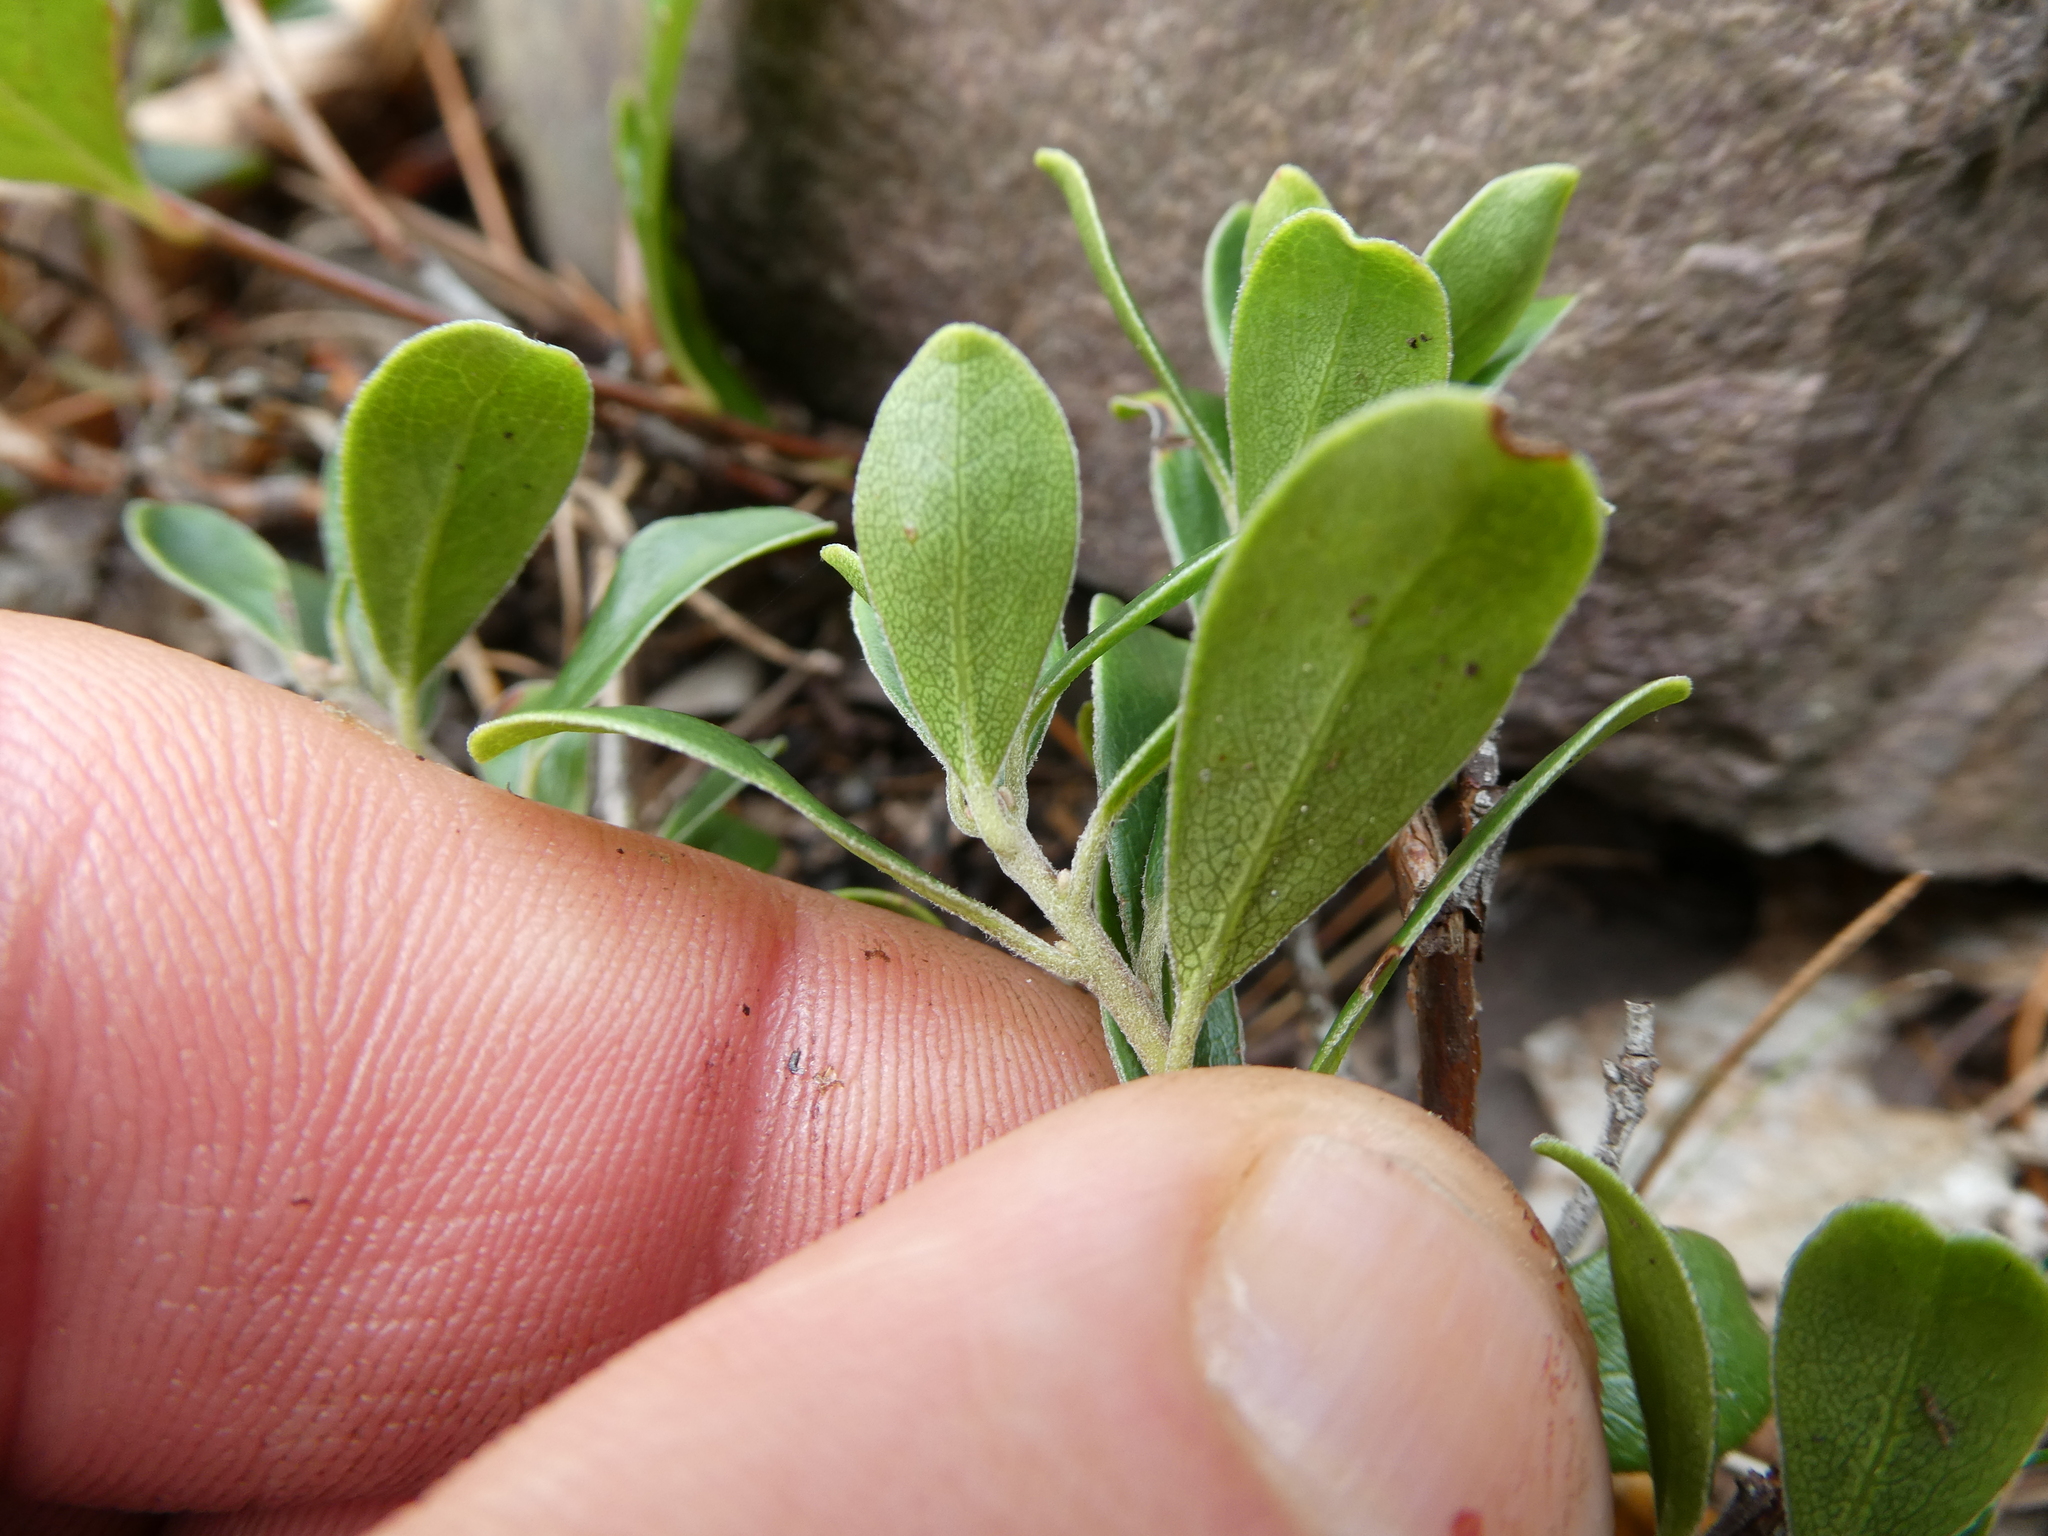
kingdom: Plantae
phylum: Tracheophyta
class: Magnoliopsida
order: Ericales
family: Ericaceae
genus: Arctostaphylos
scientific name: Arctostaphylos uva-ursi
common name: Bearberry
